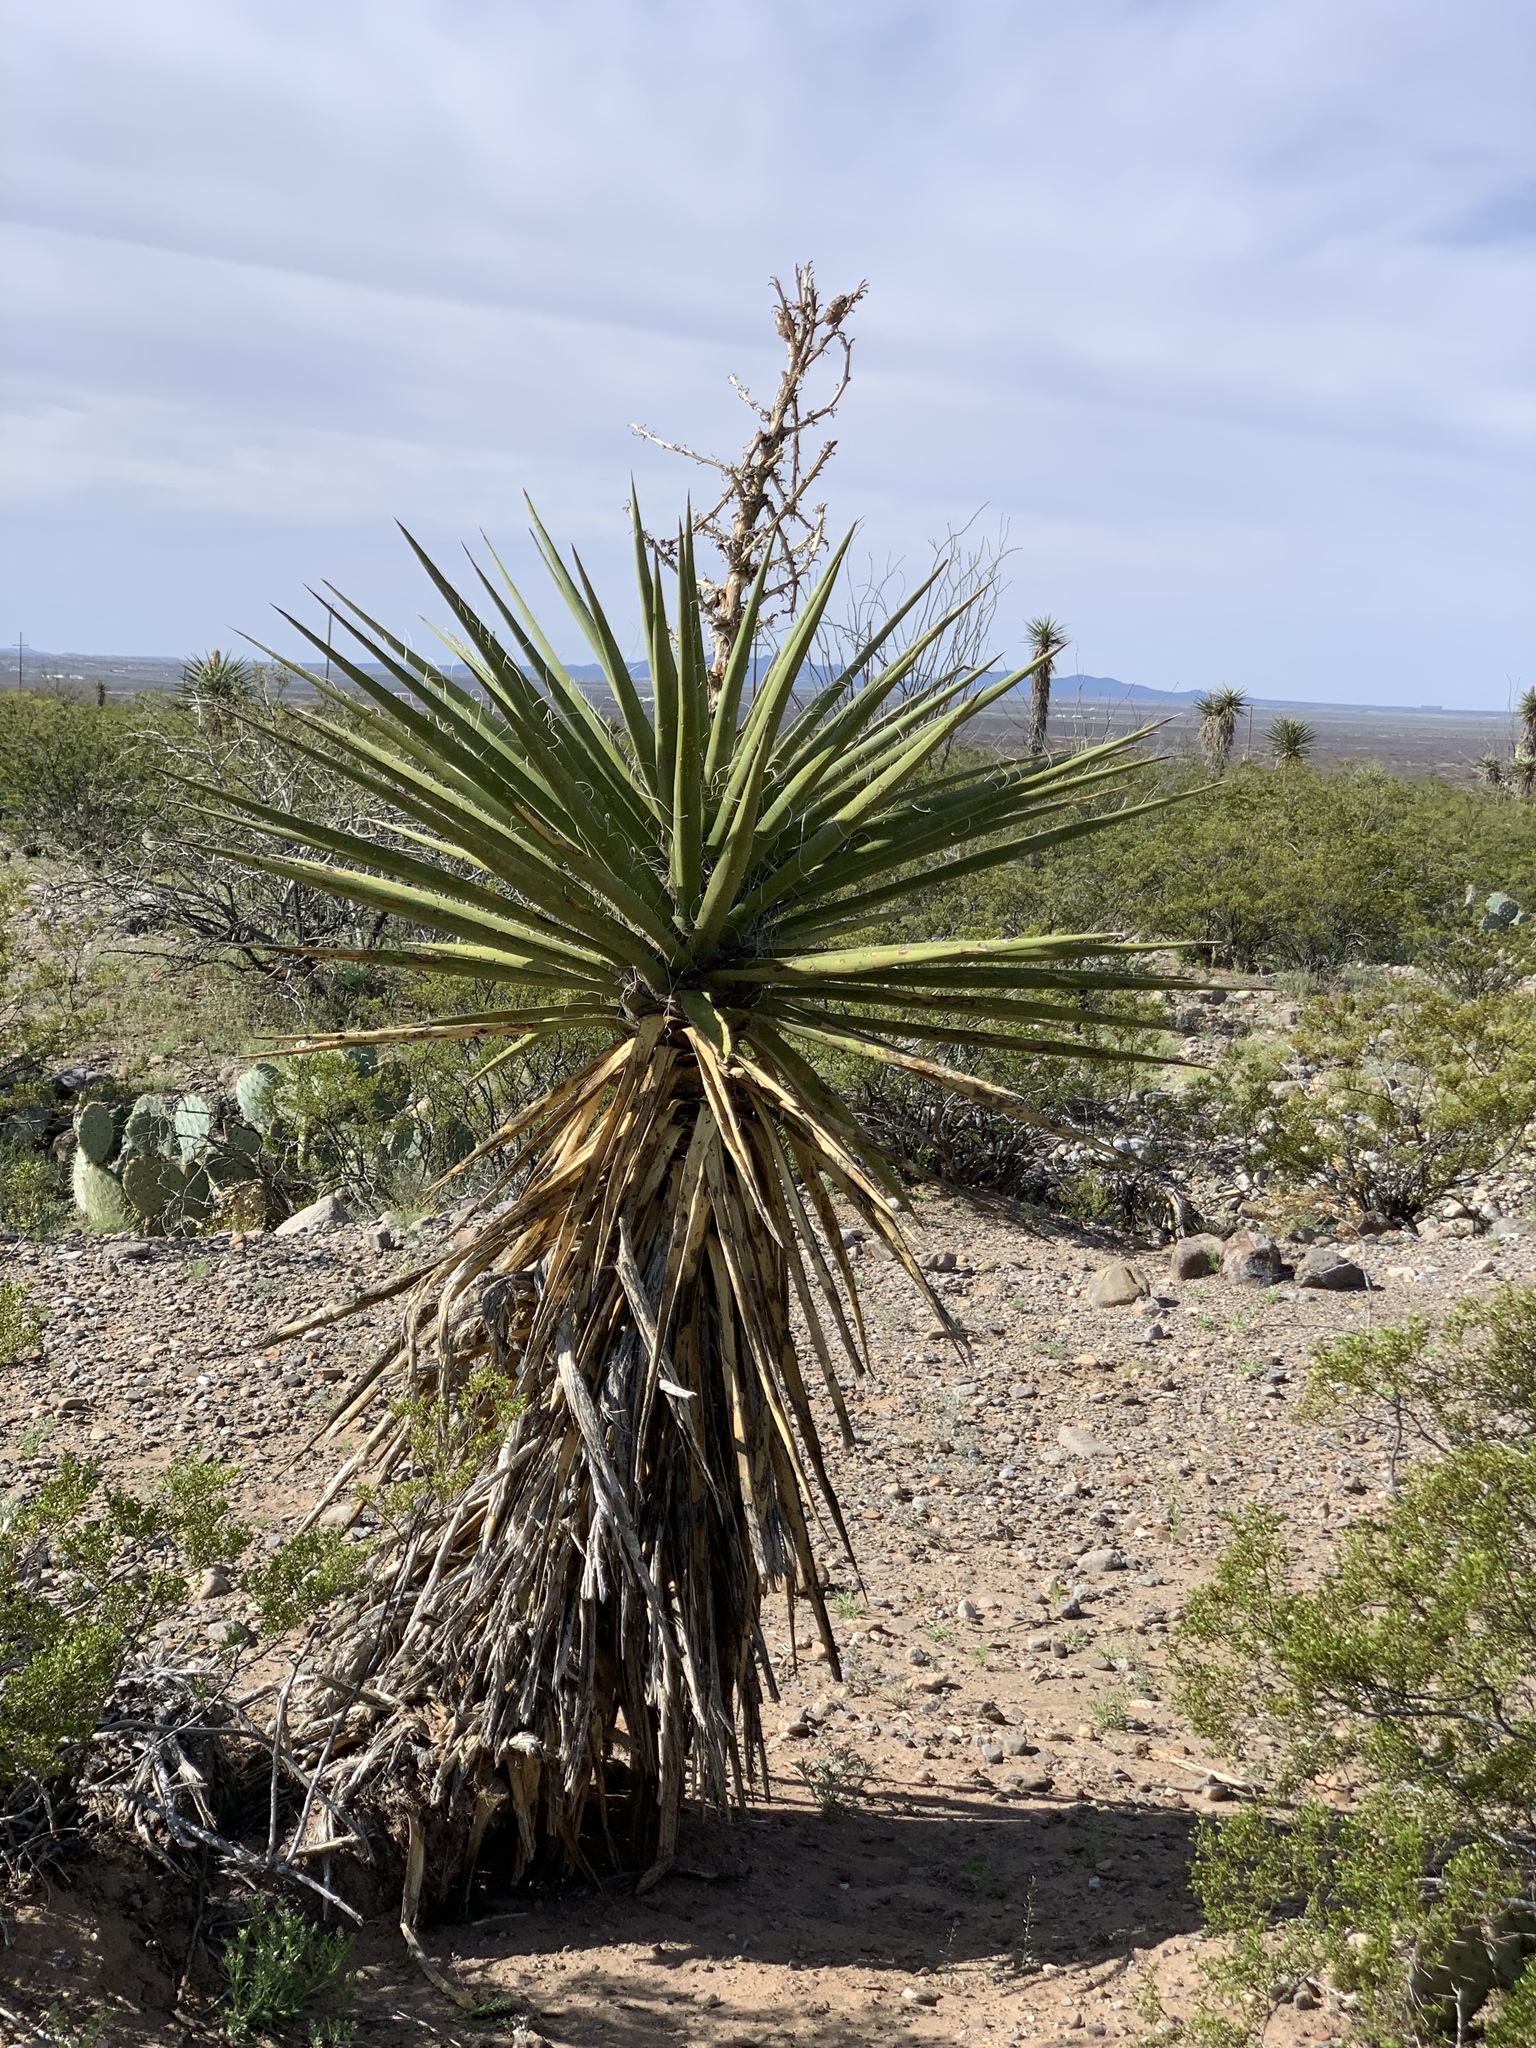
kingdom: Plantae
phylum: Tracheophyta
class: Liliopsida
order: Asparagales
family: Asparagaceae
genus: Yucca
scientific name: Yucca treculiana
